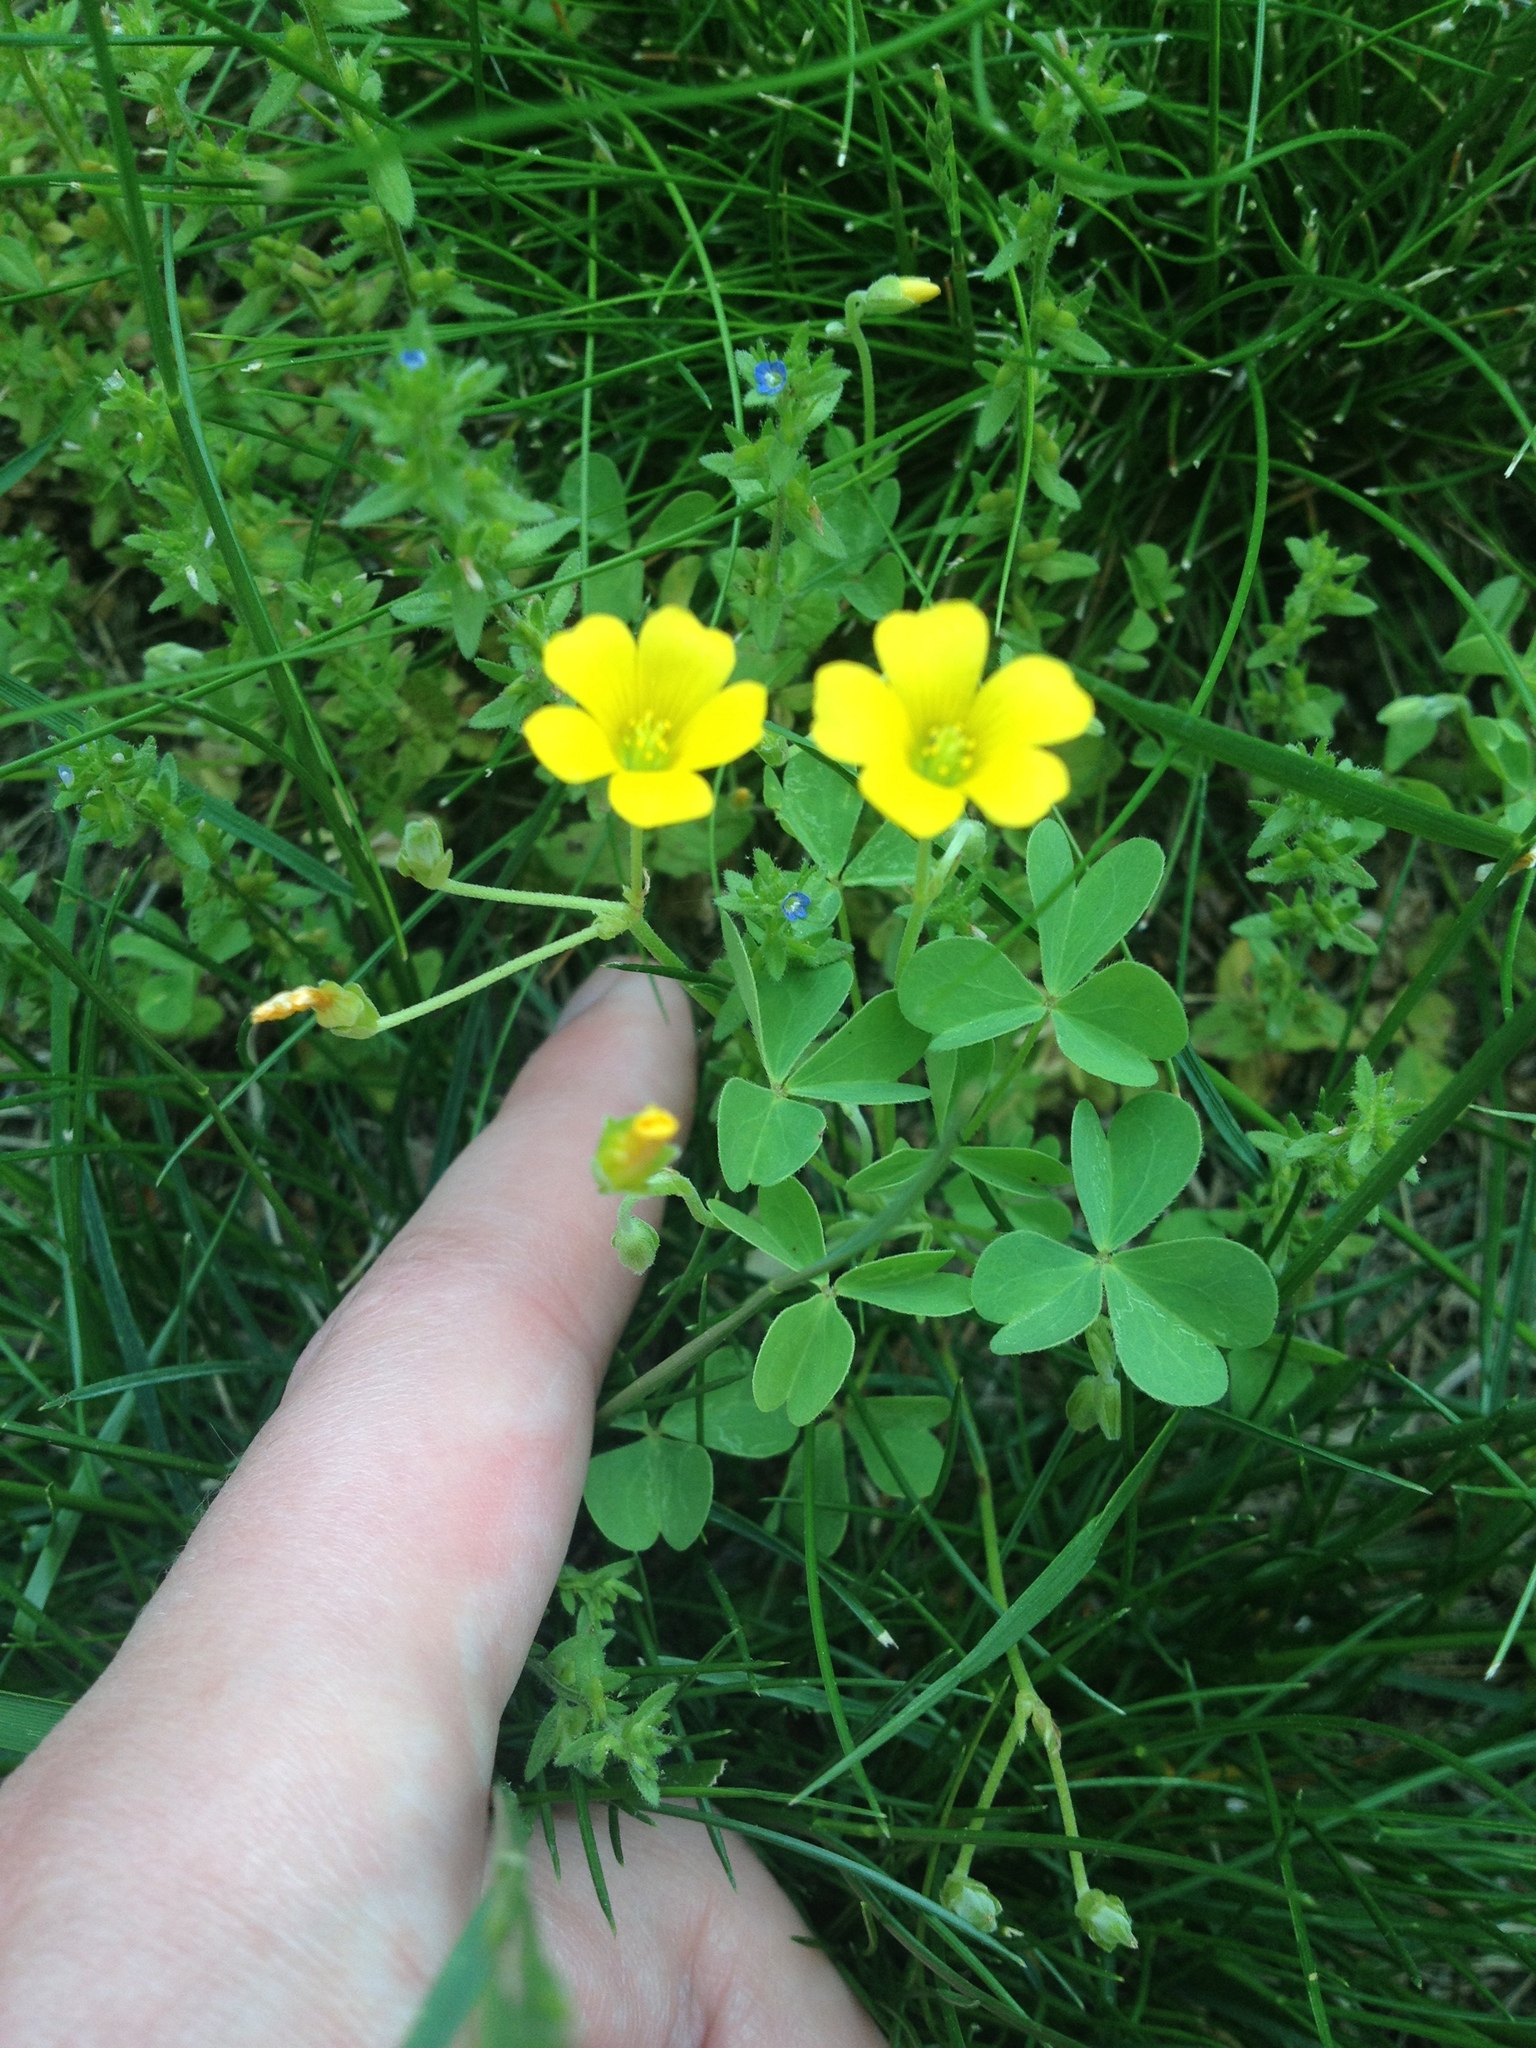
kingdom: Plantae
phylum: Tracheophyta
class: Magnoliopsida
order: Oxalidales
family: Oxalidaceae
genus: Oxalis
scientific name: Oxalis dillenii
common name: Sussex yellow-sorrel
